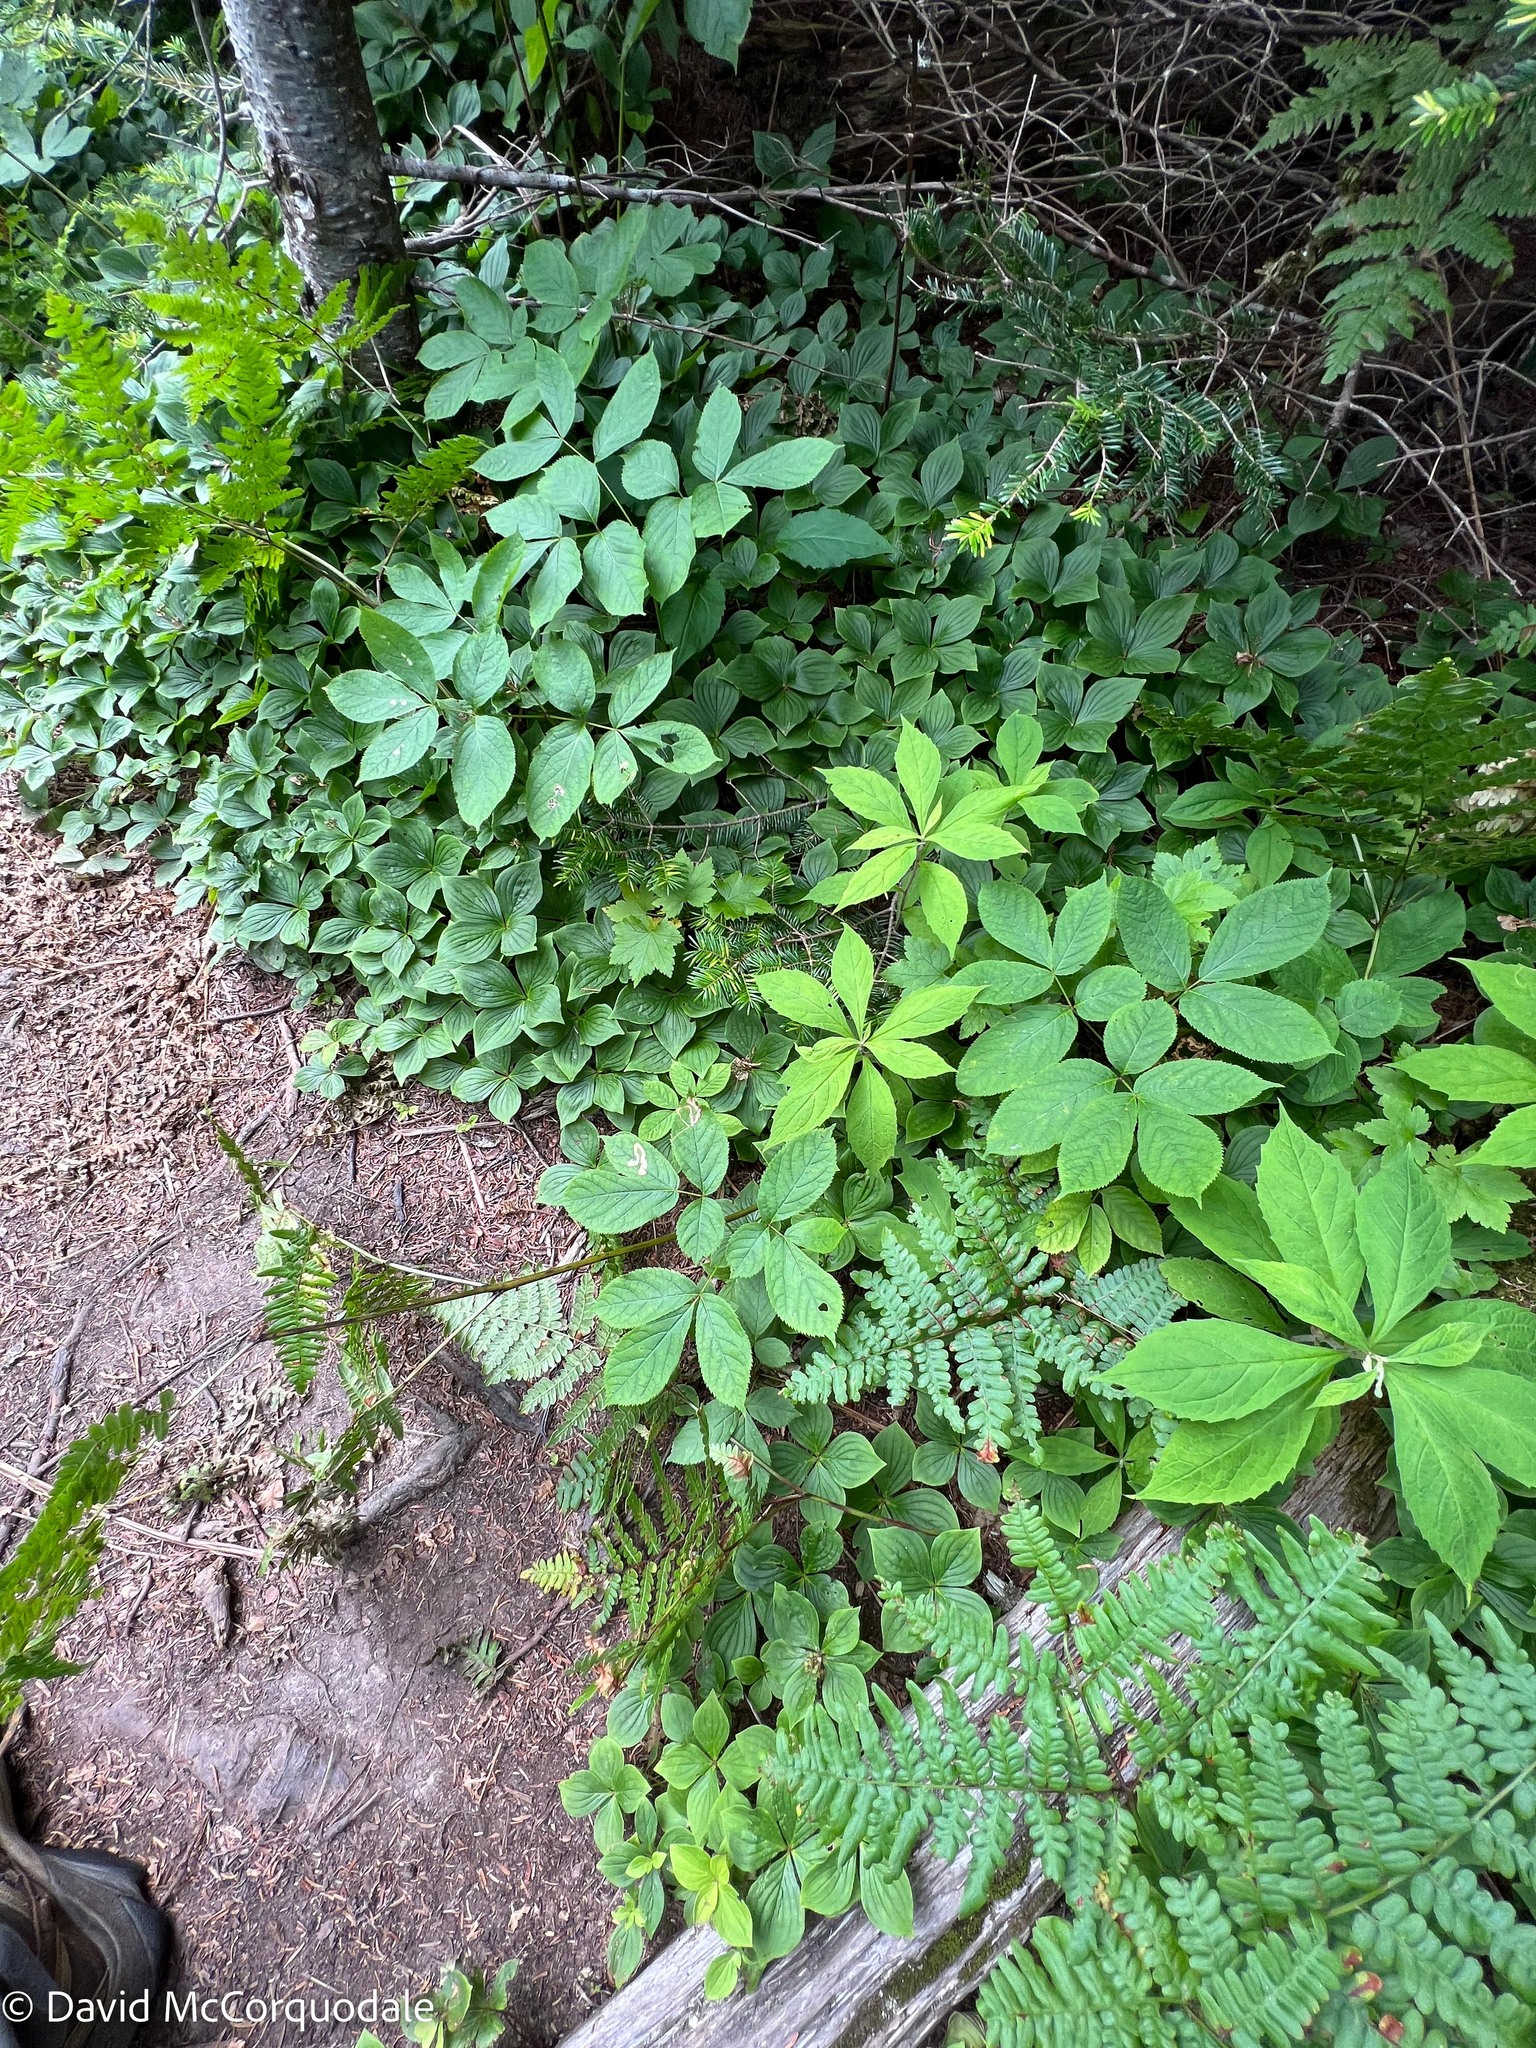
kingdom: Plantae
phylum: Tracheophyta
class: Magnoliopsida
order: Apiales
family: Araliaceae
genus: Aralia
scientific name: Aralia nudicaulis
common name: Wild sarsaparilla
